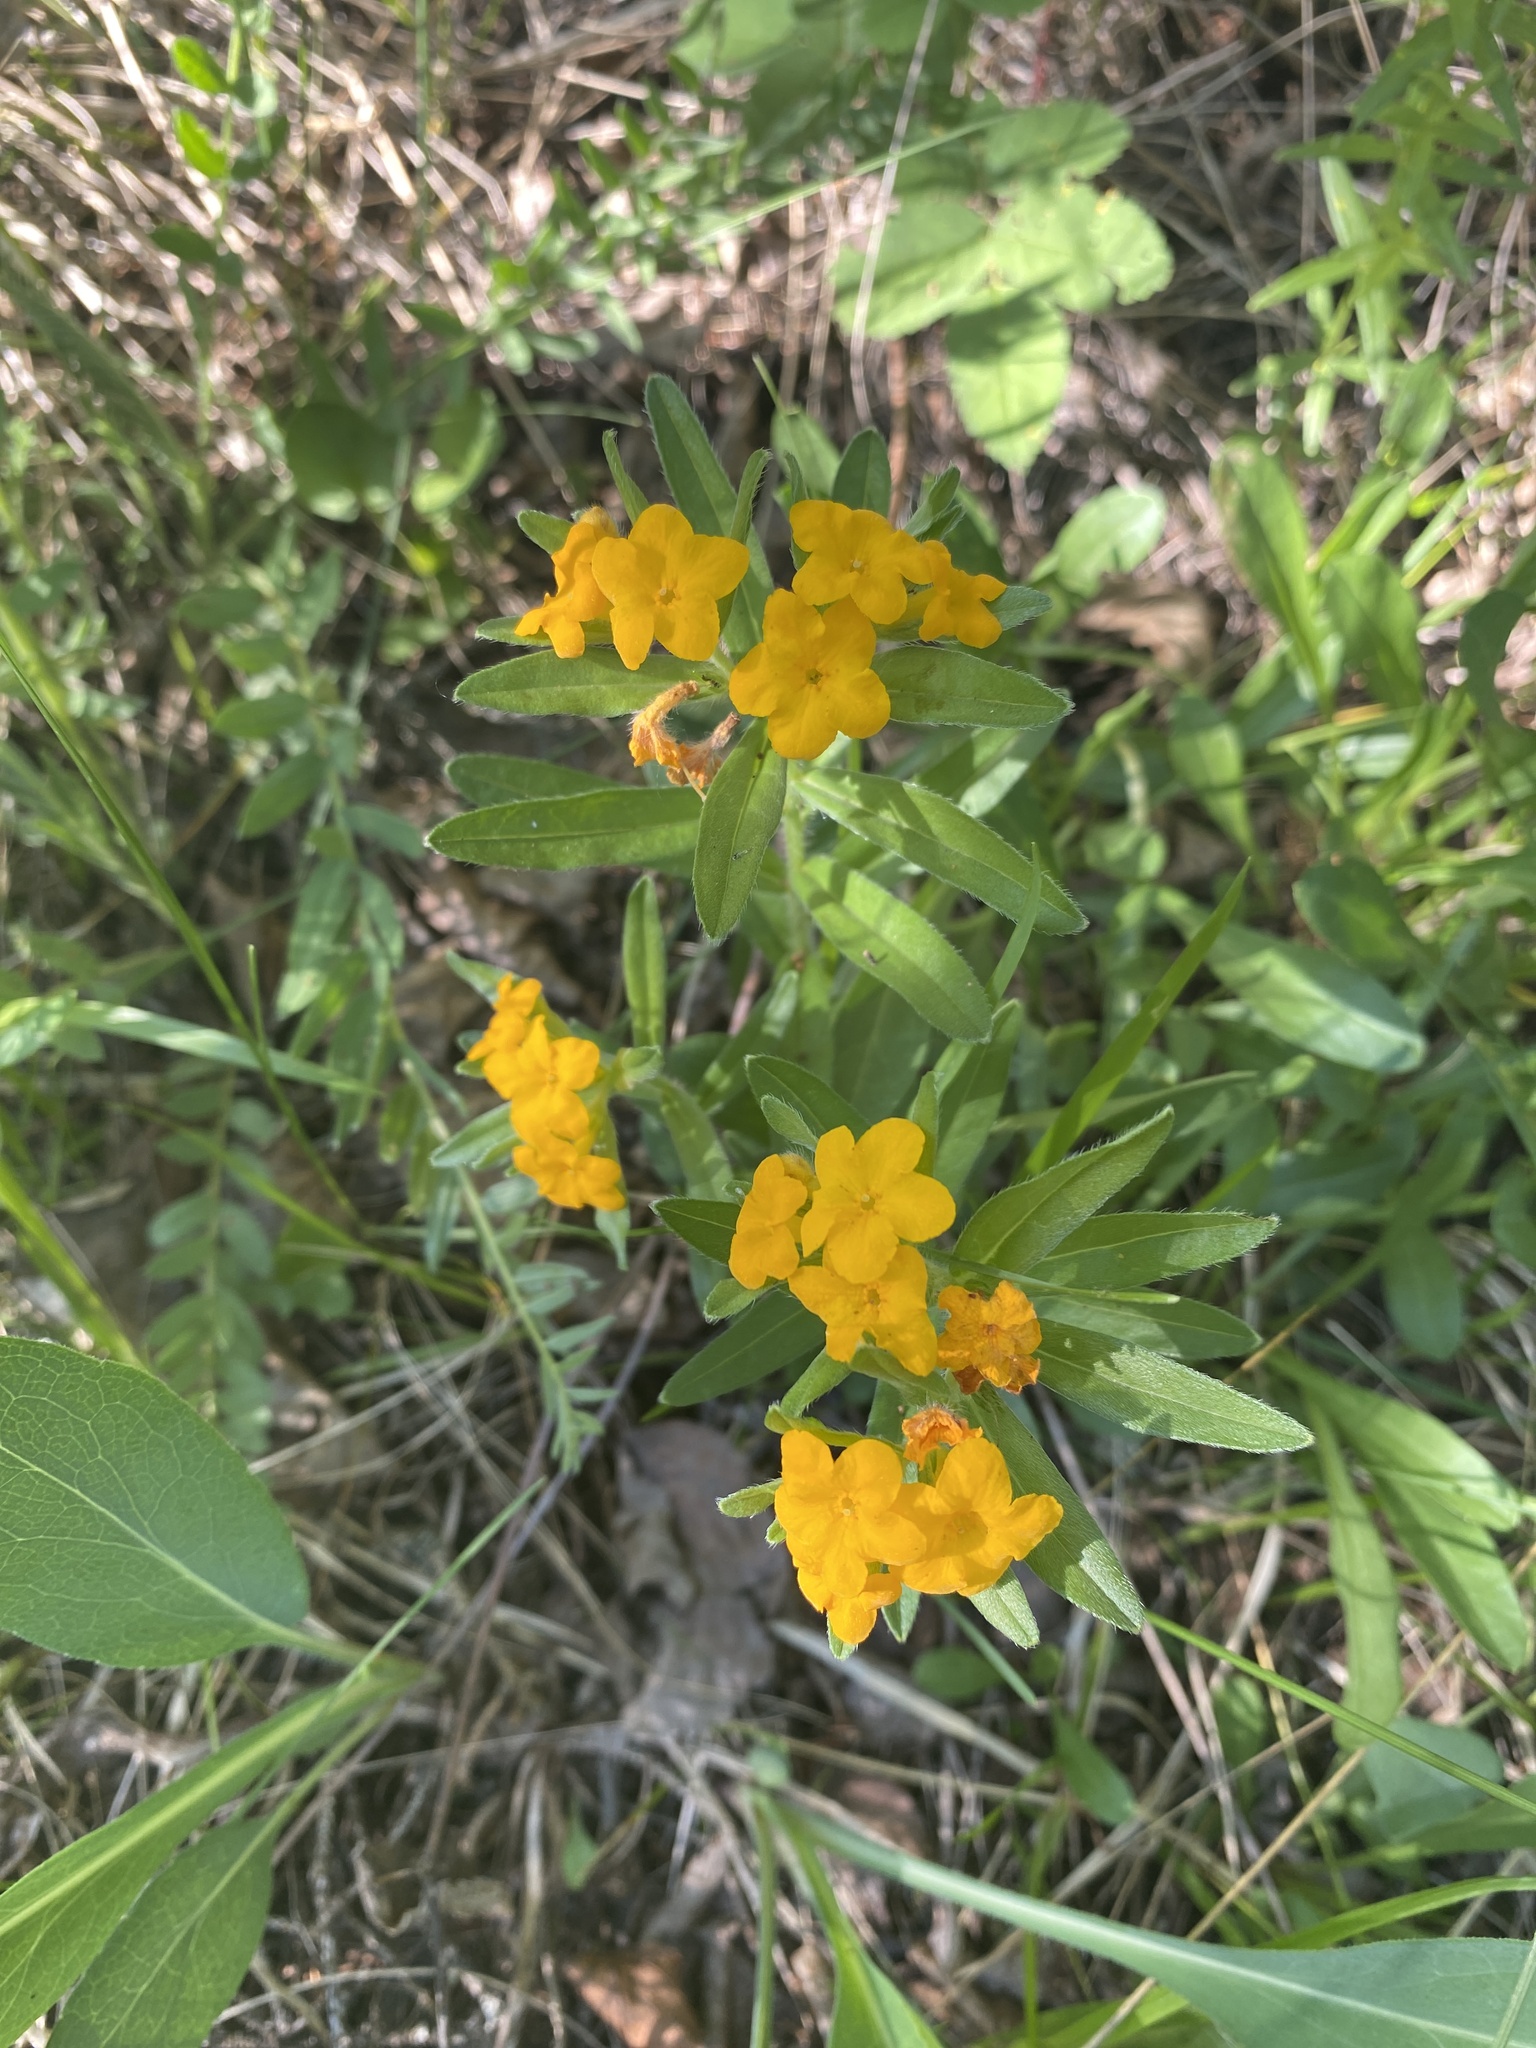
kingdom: Plantae
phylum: Tracheophyta
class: Magnoliopsida
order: Boraginales
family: Boraginaceae
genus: Lithospermum
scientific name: Lithospermum canescens
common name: Hoary puccoon
